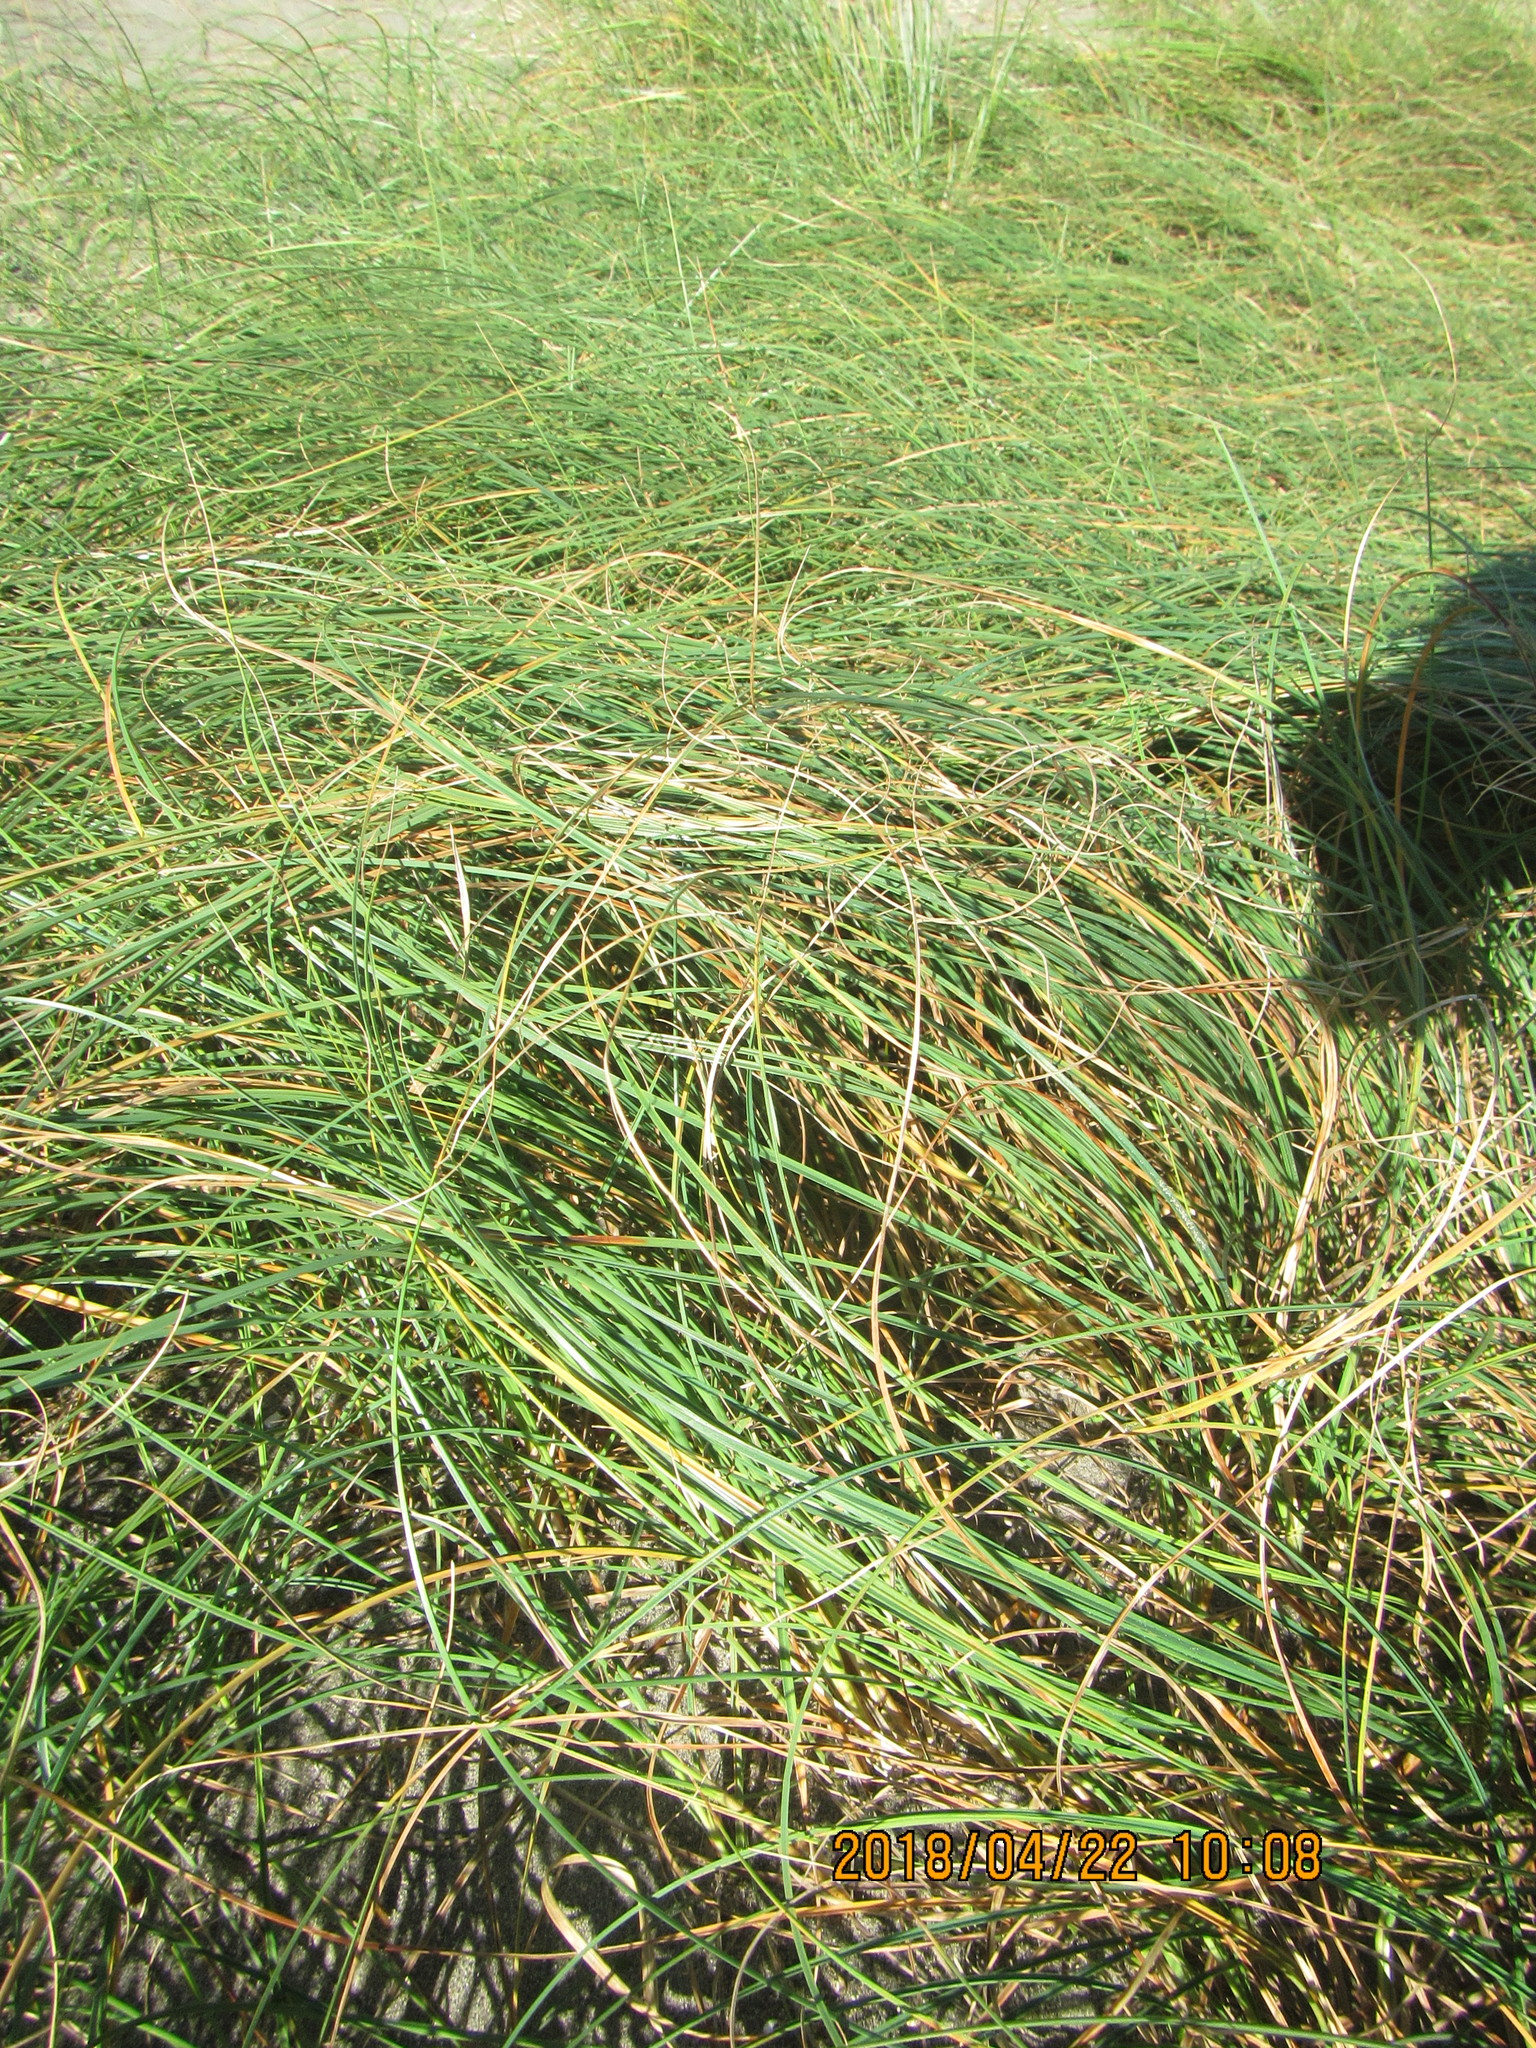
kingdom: Plantae
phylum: Tracheophyta
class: Liliopsida
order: Poales
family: Cyperaceae
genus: Carex
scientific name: Carex pumila
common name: Dwarf sedge
